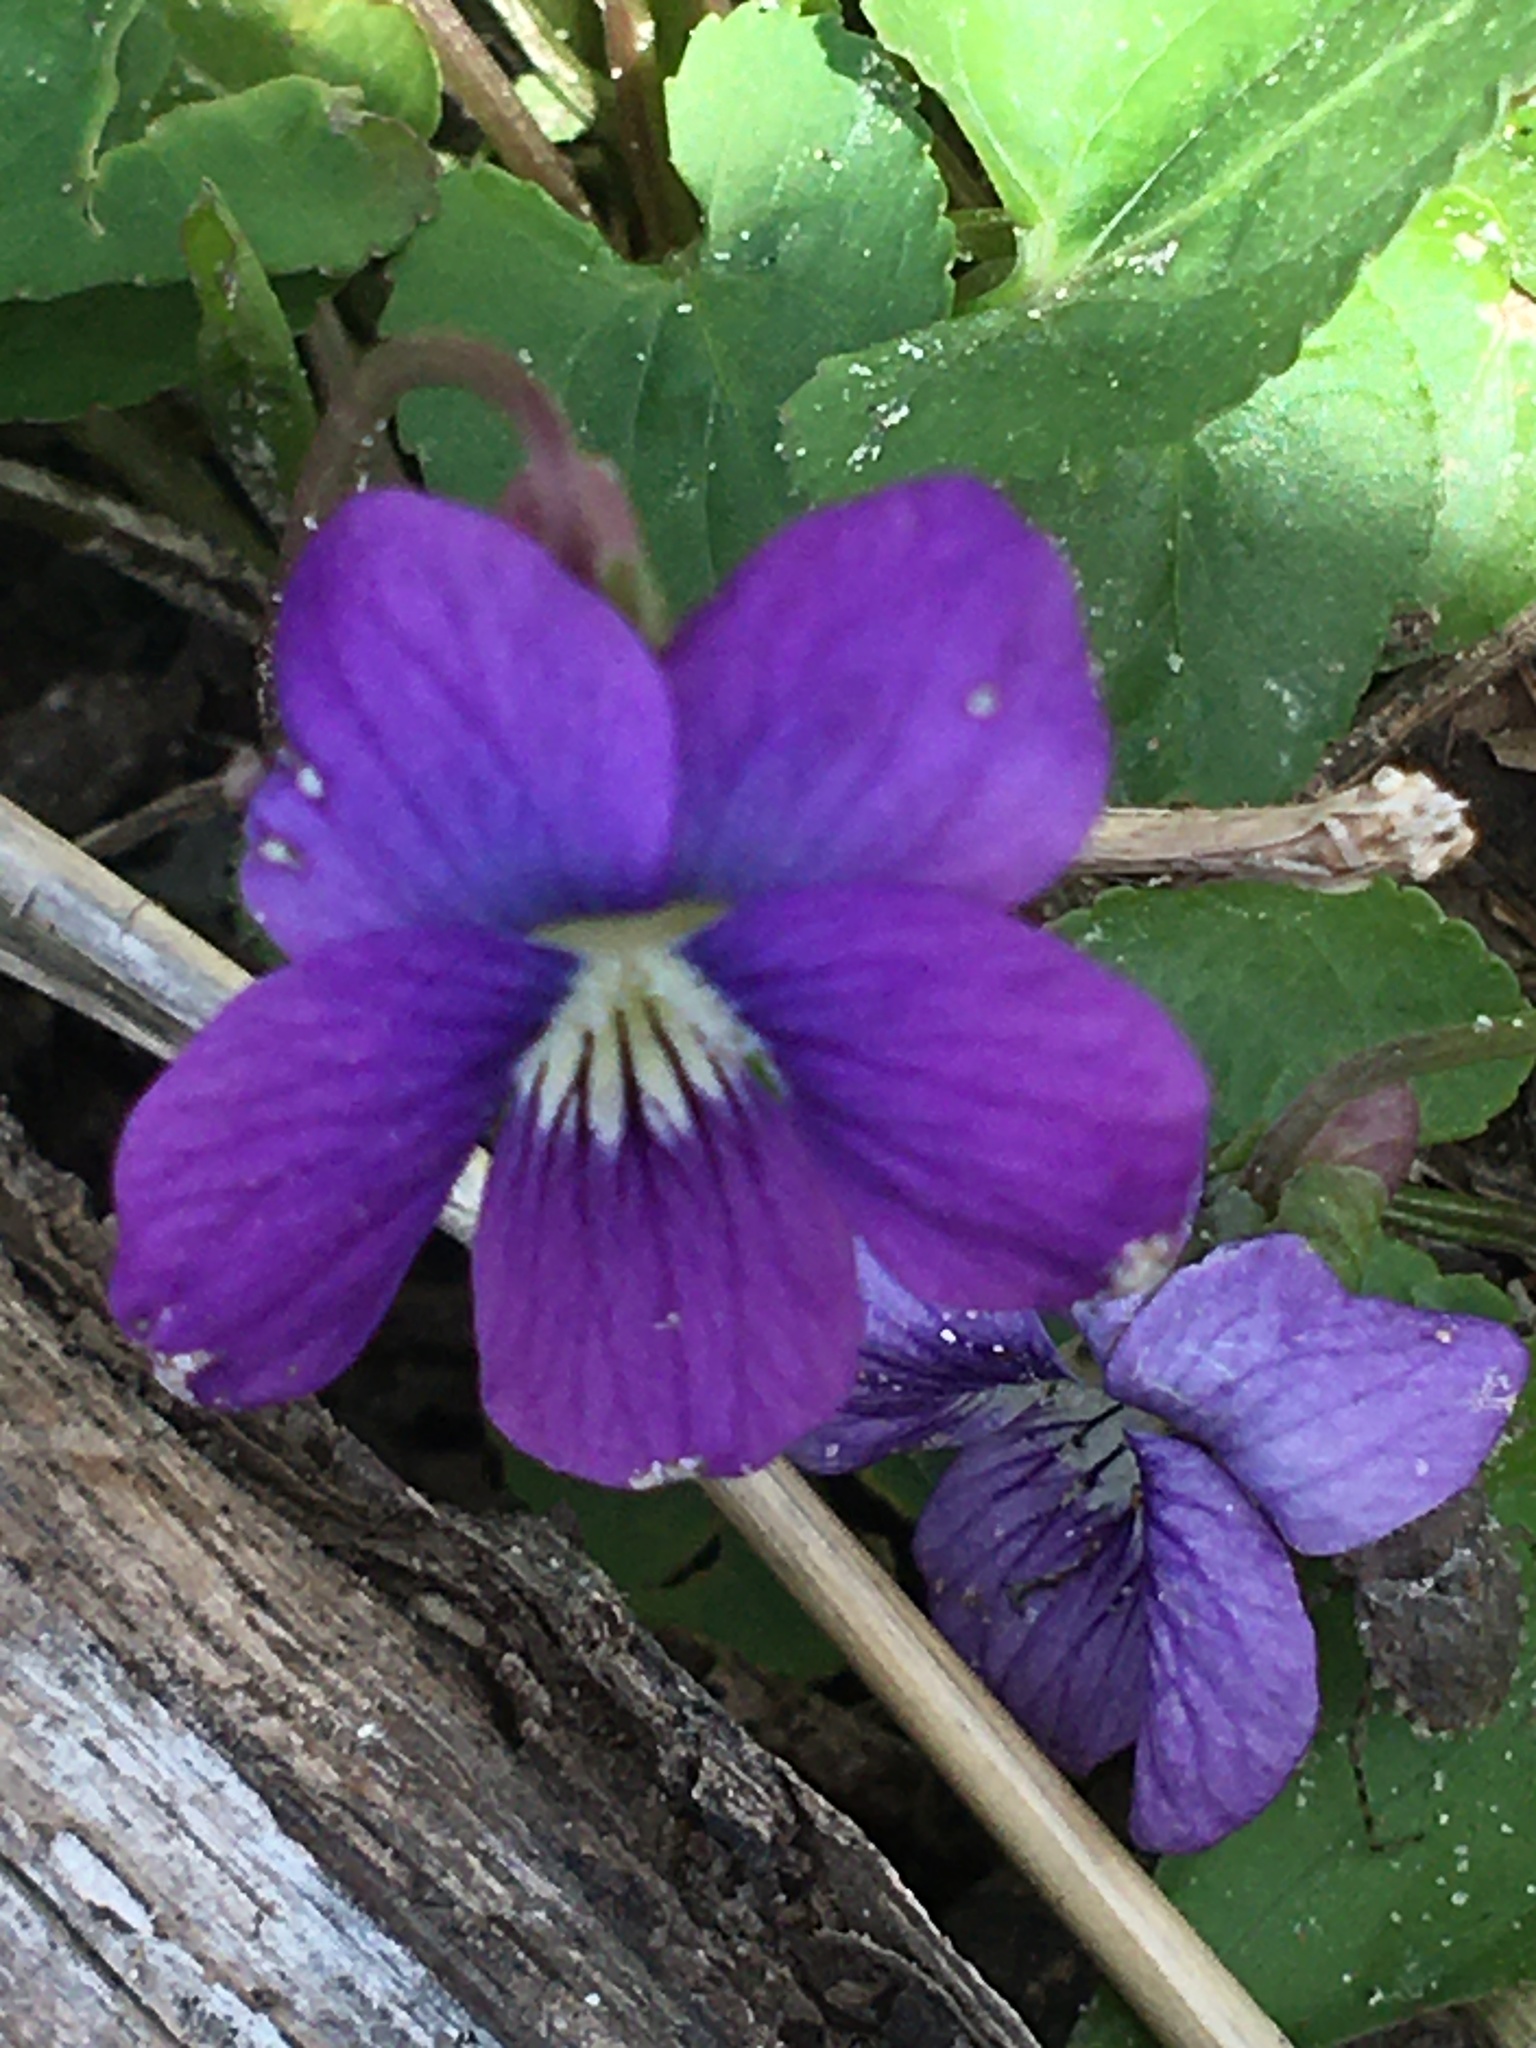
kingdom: Plantae
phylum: Tracheophyta
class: Magnoliopsida
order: Malpighiales
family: Violaceae
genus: Viola
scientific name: Viola sororia
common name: Dooryard violet
